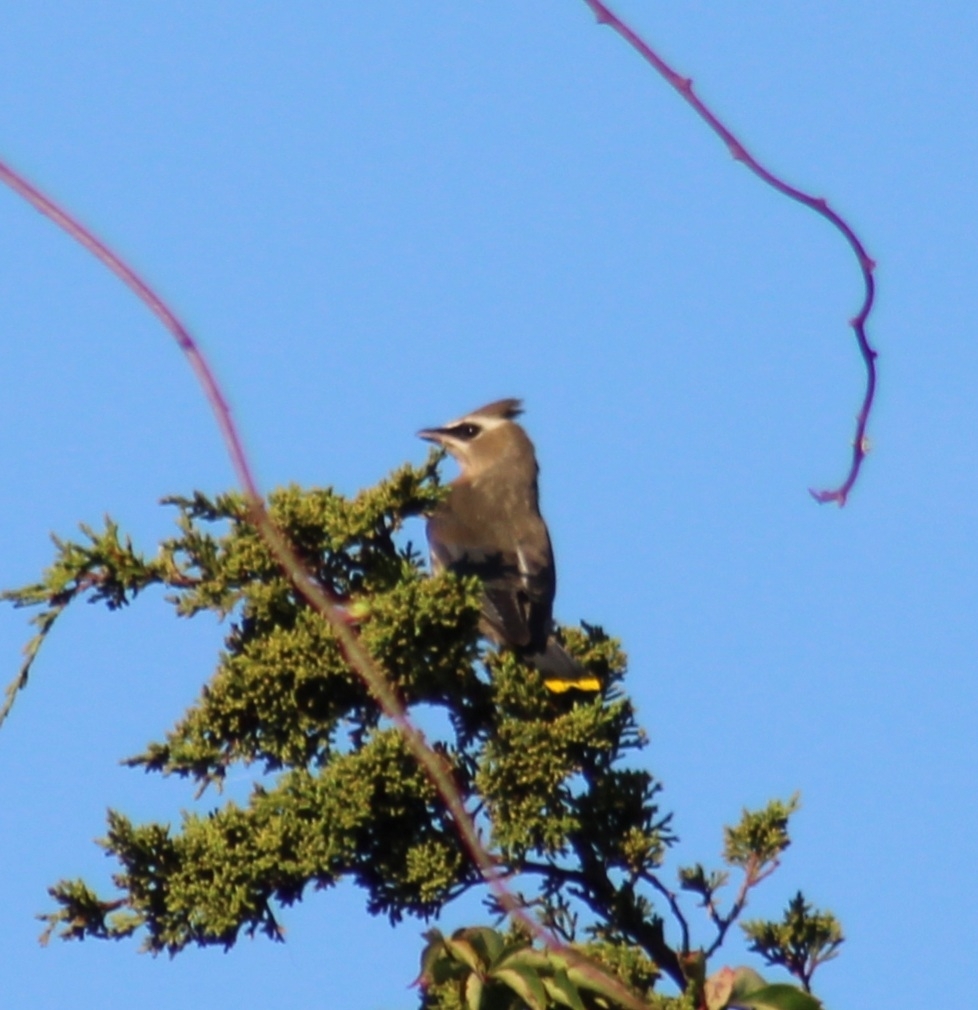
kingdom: Animalia
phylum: Chordata
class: Aves
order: Passeriformes
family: Bombycillidae
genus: Bombycilla
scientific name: Bombycilla cedrorum
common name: Cedar waxwing
